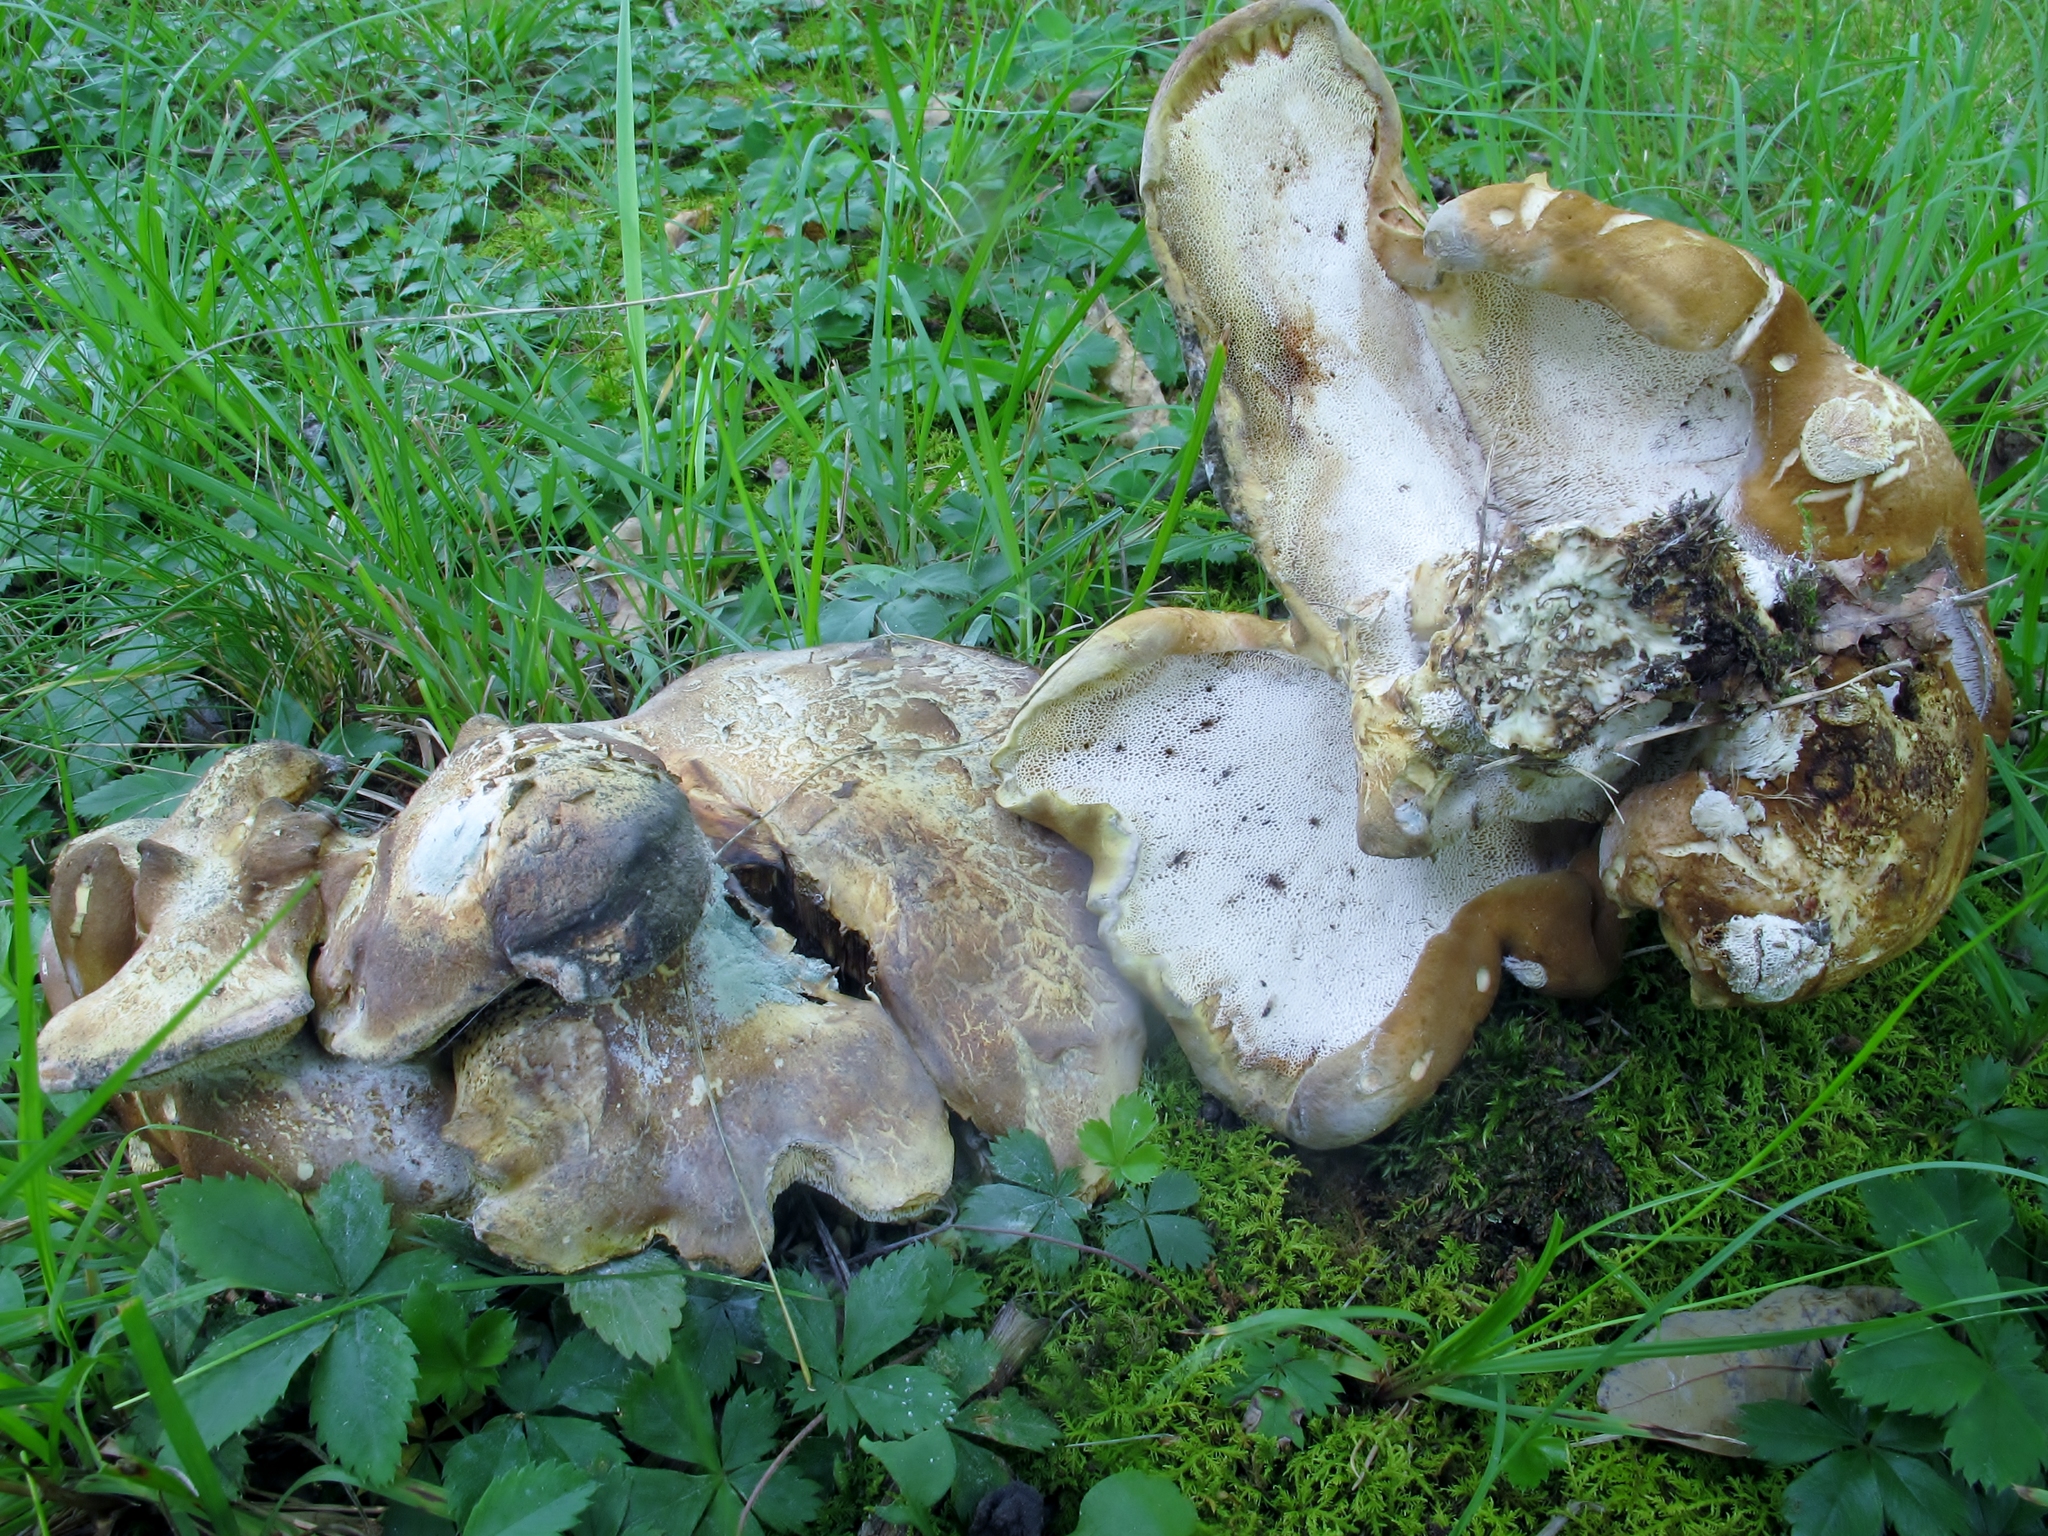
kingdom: Fungi
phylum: Basidiomycota
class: Agaricomycetes
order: Russulales
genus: Laeticutis
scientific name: Laeticutis cristata
